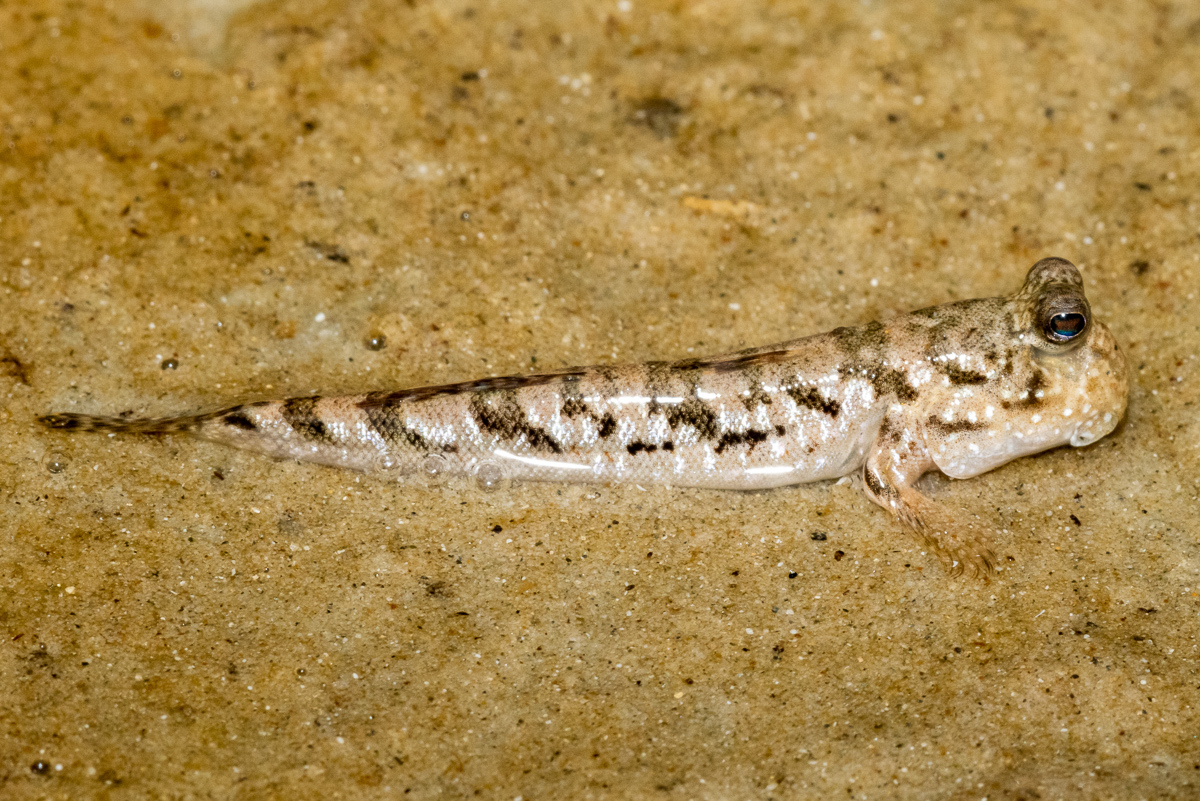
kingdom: Animalia
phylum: Chordata
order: Perciformes
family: Gobiidae
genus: Periophthalmus
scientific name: Periophthalmus argentilineatus
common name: Barred mudskipper
